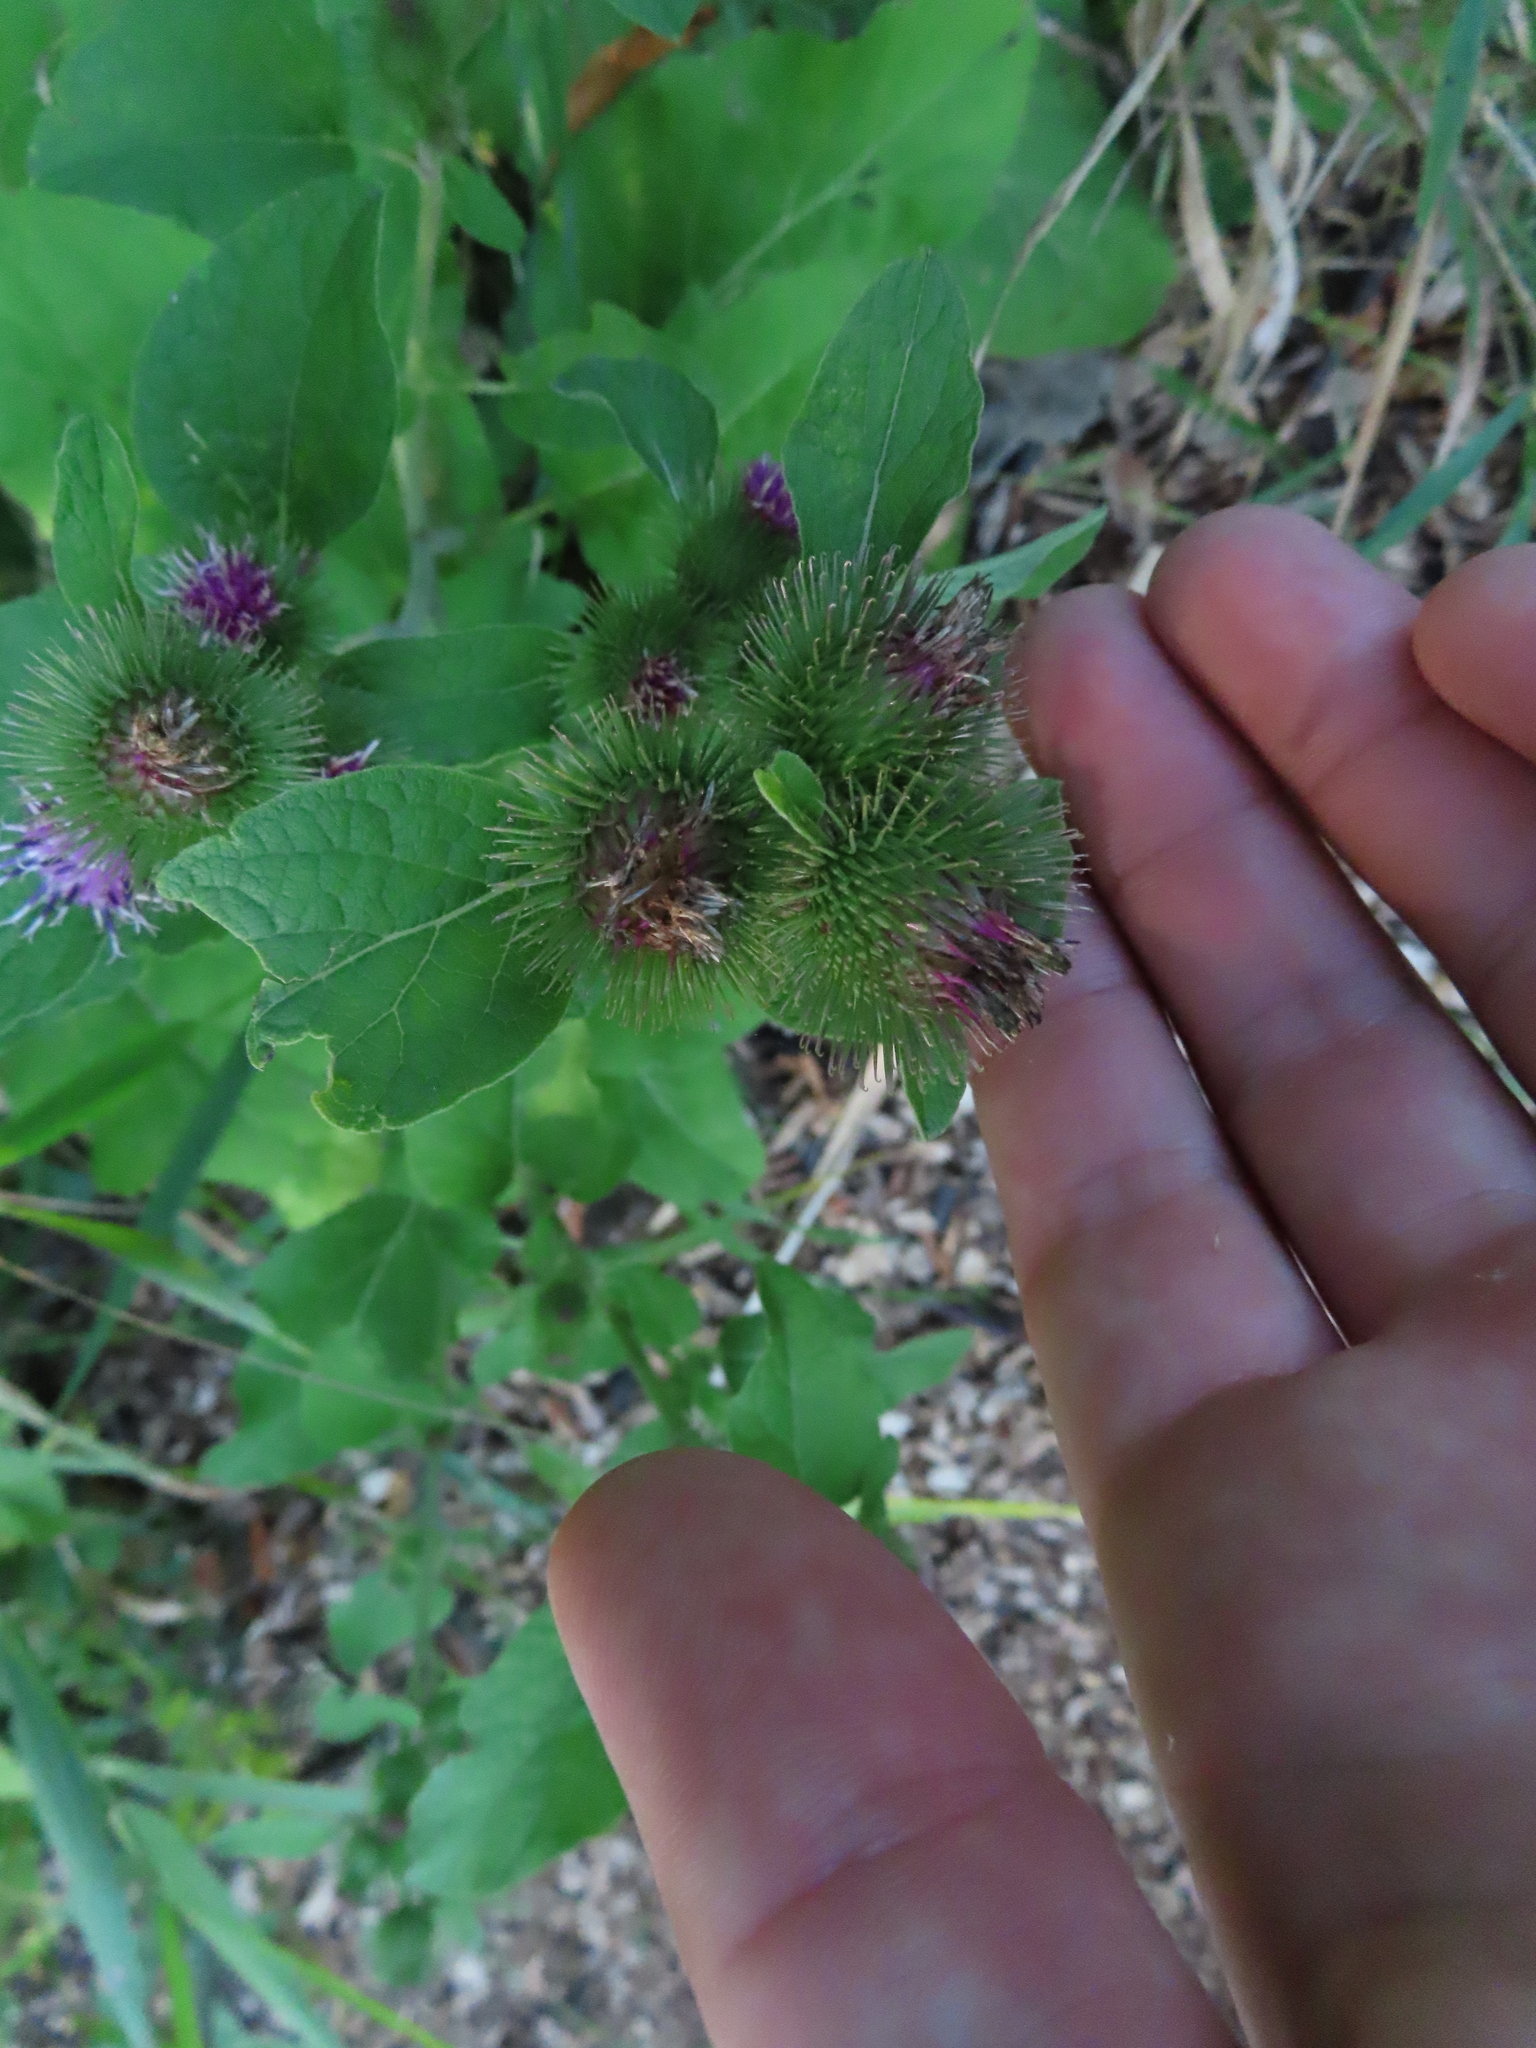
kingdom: Plantae
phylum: Tracheophyta
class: Magnoliopsida
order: Asterales
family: Asteraceae
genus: Arctium
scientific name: Arctium minus
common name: Lesser burdock
